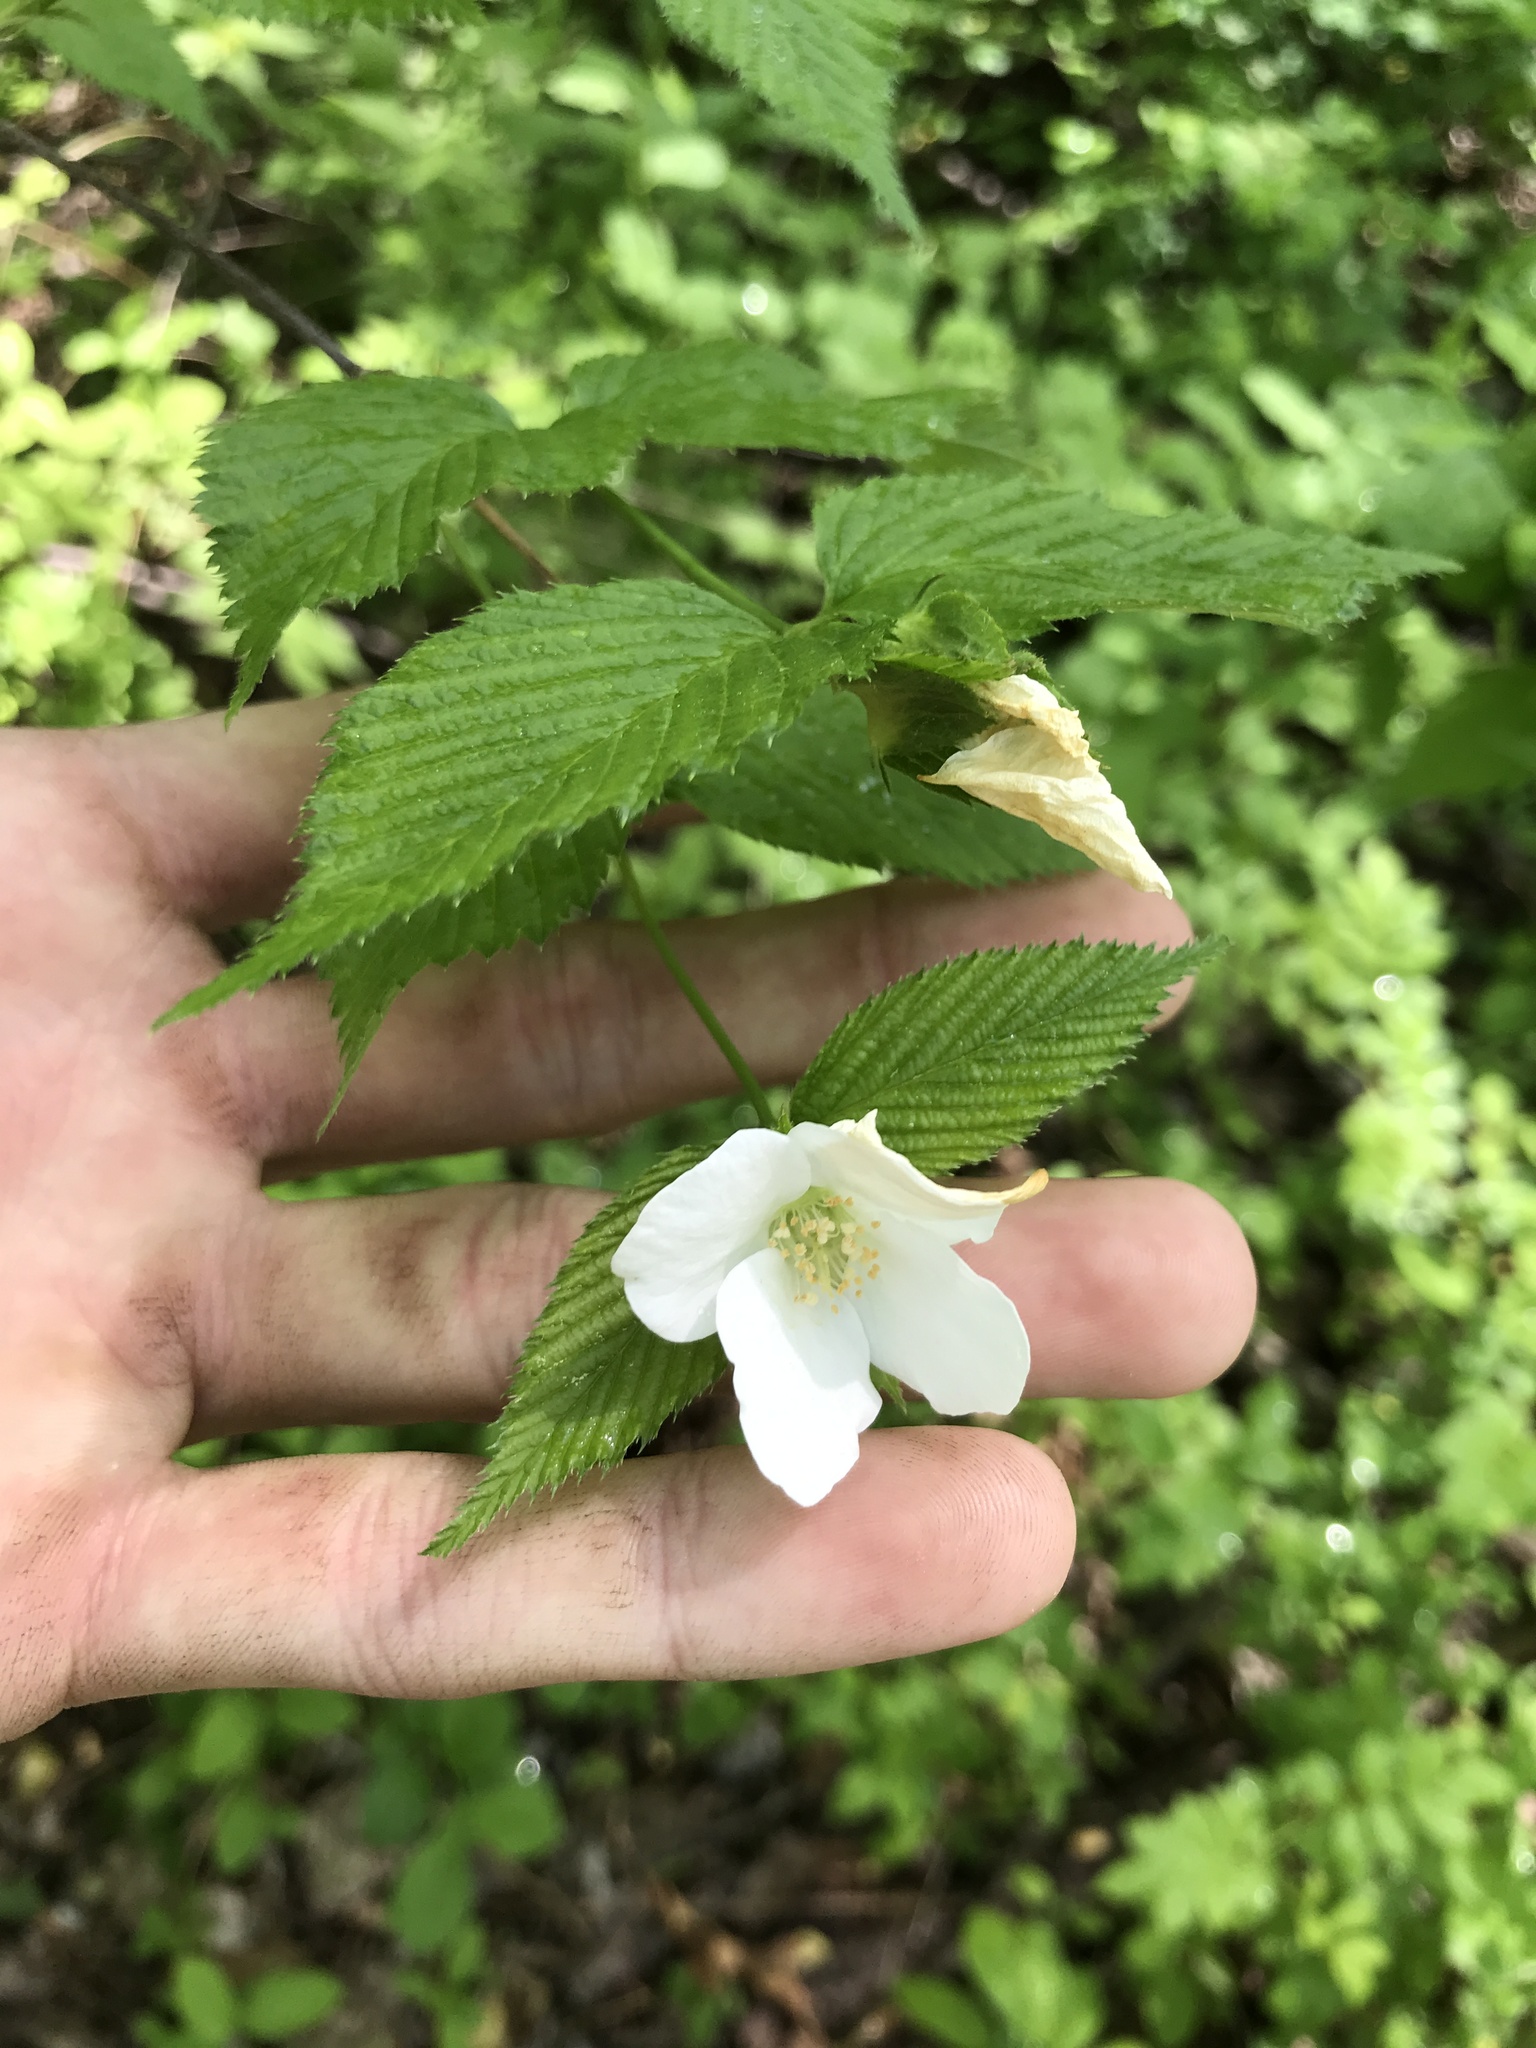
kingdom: Plantae
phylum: Tracheophyta
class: Magnoliopsida
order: Rosales
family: Rosaceae
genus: Rhodotypos
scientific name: Rhodotypos scandens
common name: Jetbead
